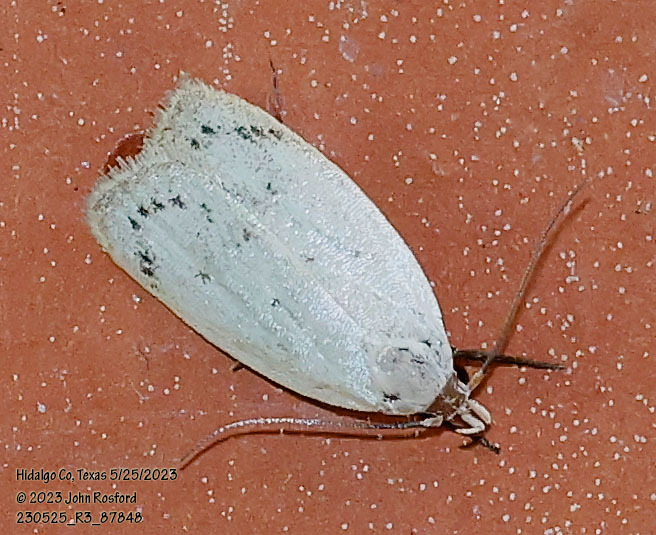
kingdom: Animalia
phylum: Arthropoda
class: Insecta
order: Lepidoptera
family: Oecophoridae
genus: Inga
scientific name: Inga cretacea
